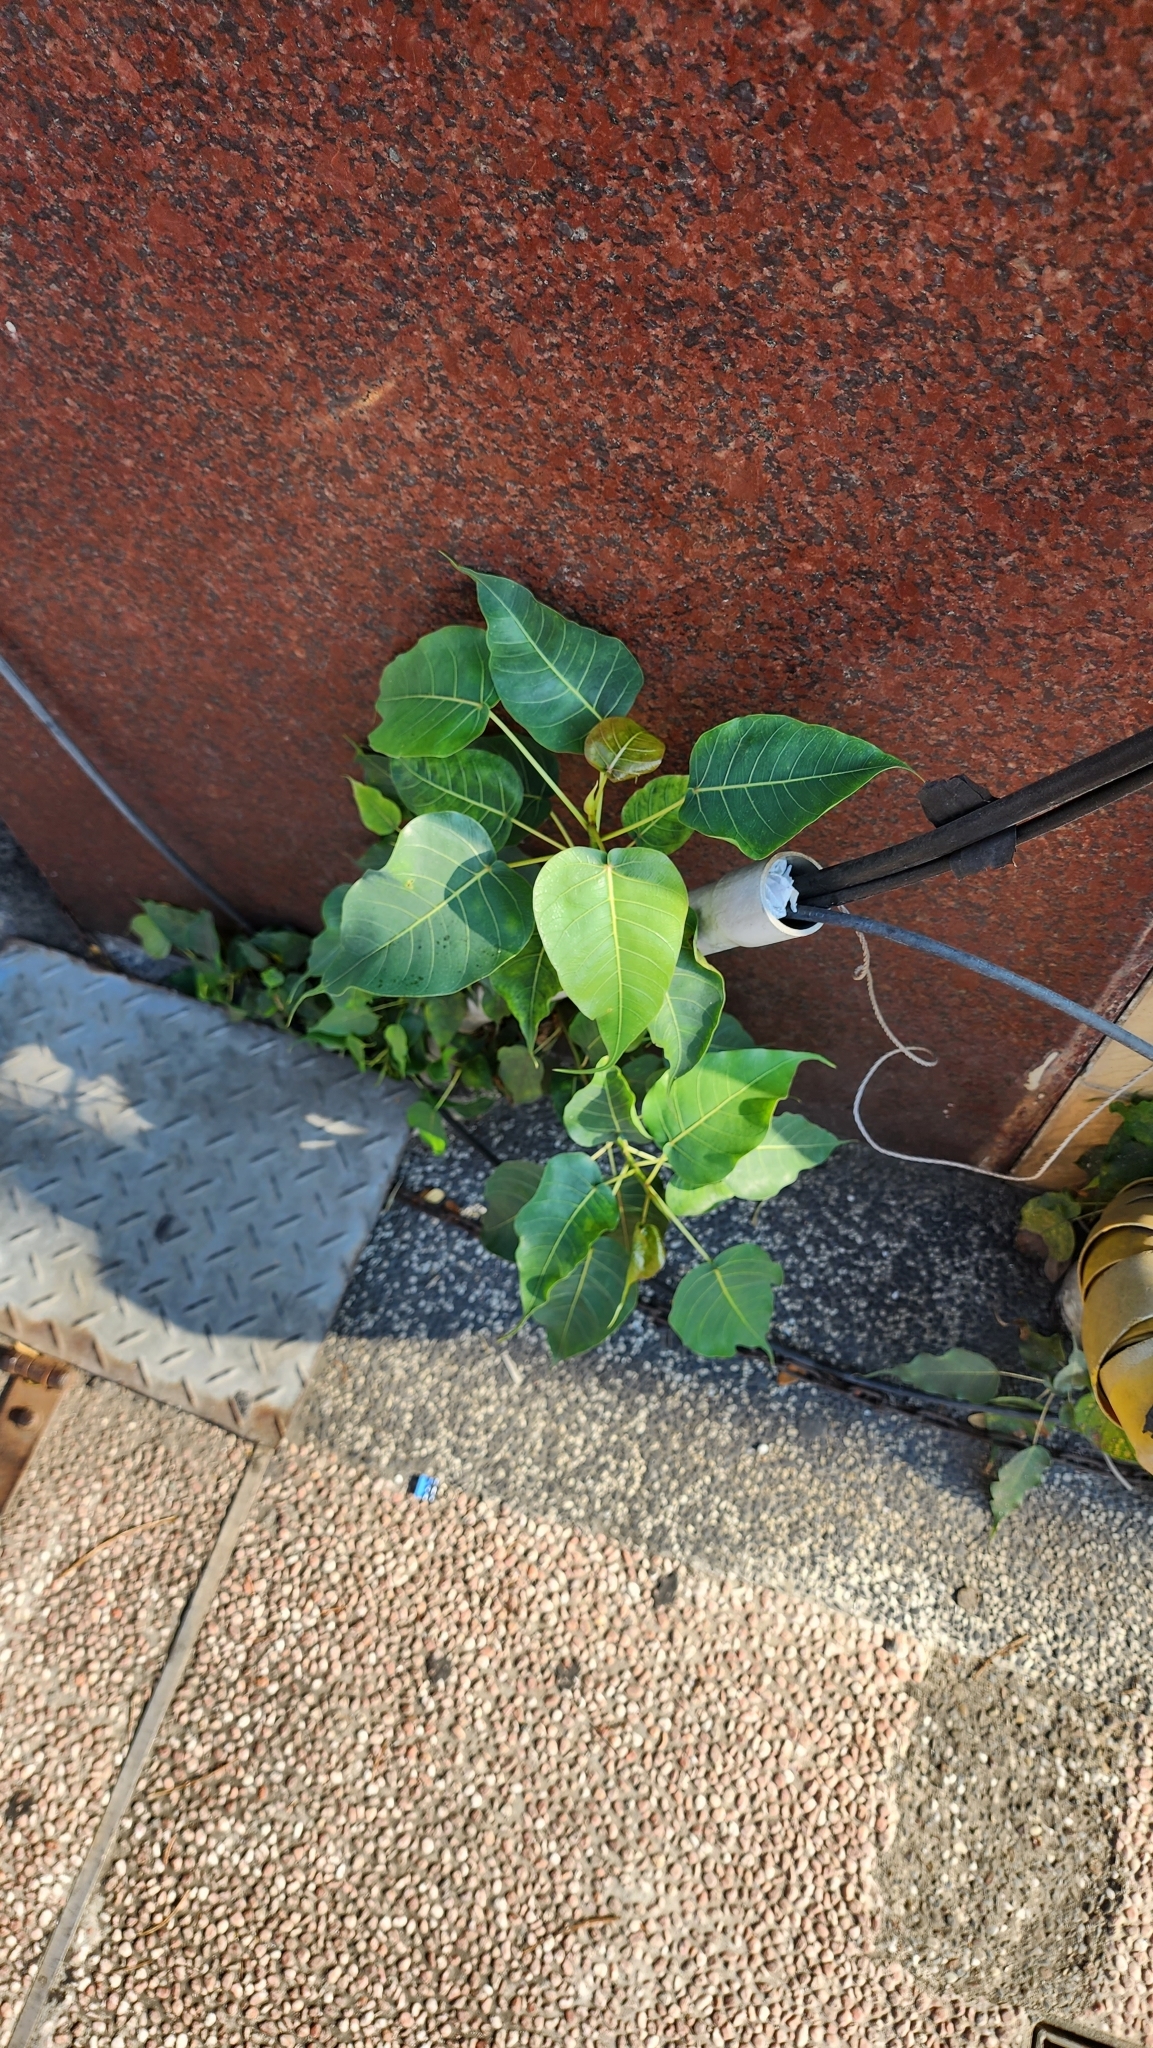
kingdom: Plantae
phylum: Tracheophyta
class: Magnoliopsida
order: Rosales
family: Moraceae
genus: Ficus
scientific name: Ficus religiosa
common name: Bodhi tree
